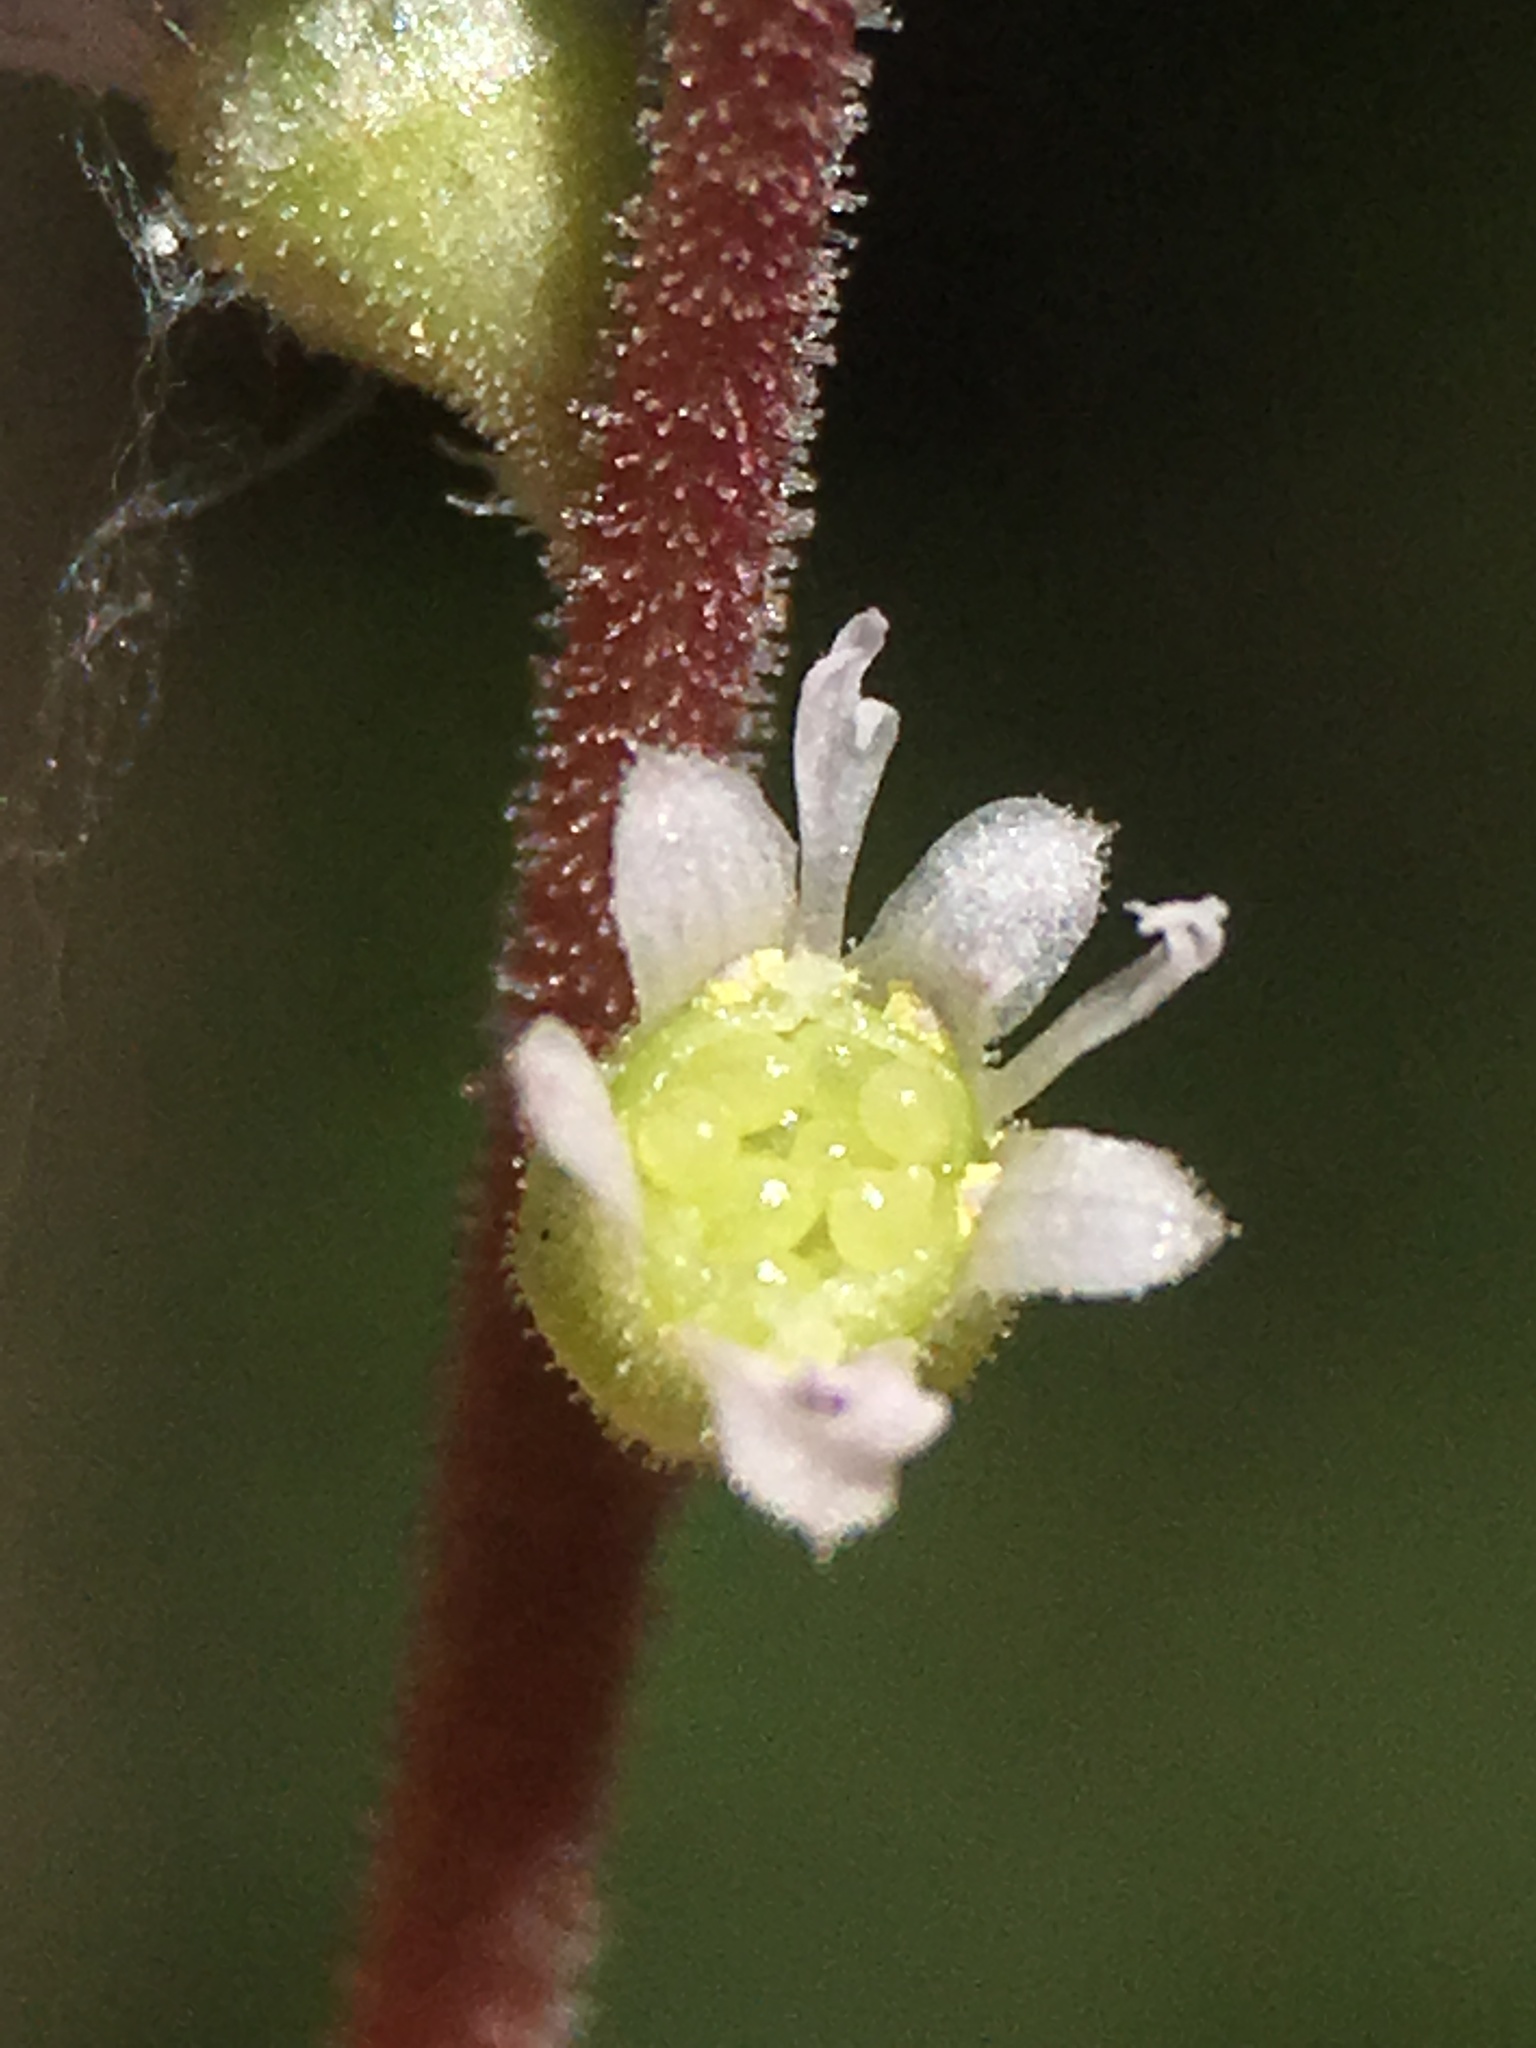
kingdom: Plantae
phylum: Tracheophyta
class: Magnoliopsida
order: Saxifragales
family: Saxifragaceae
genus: Ozomelis
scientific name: Ozomelis diversifolia
